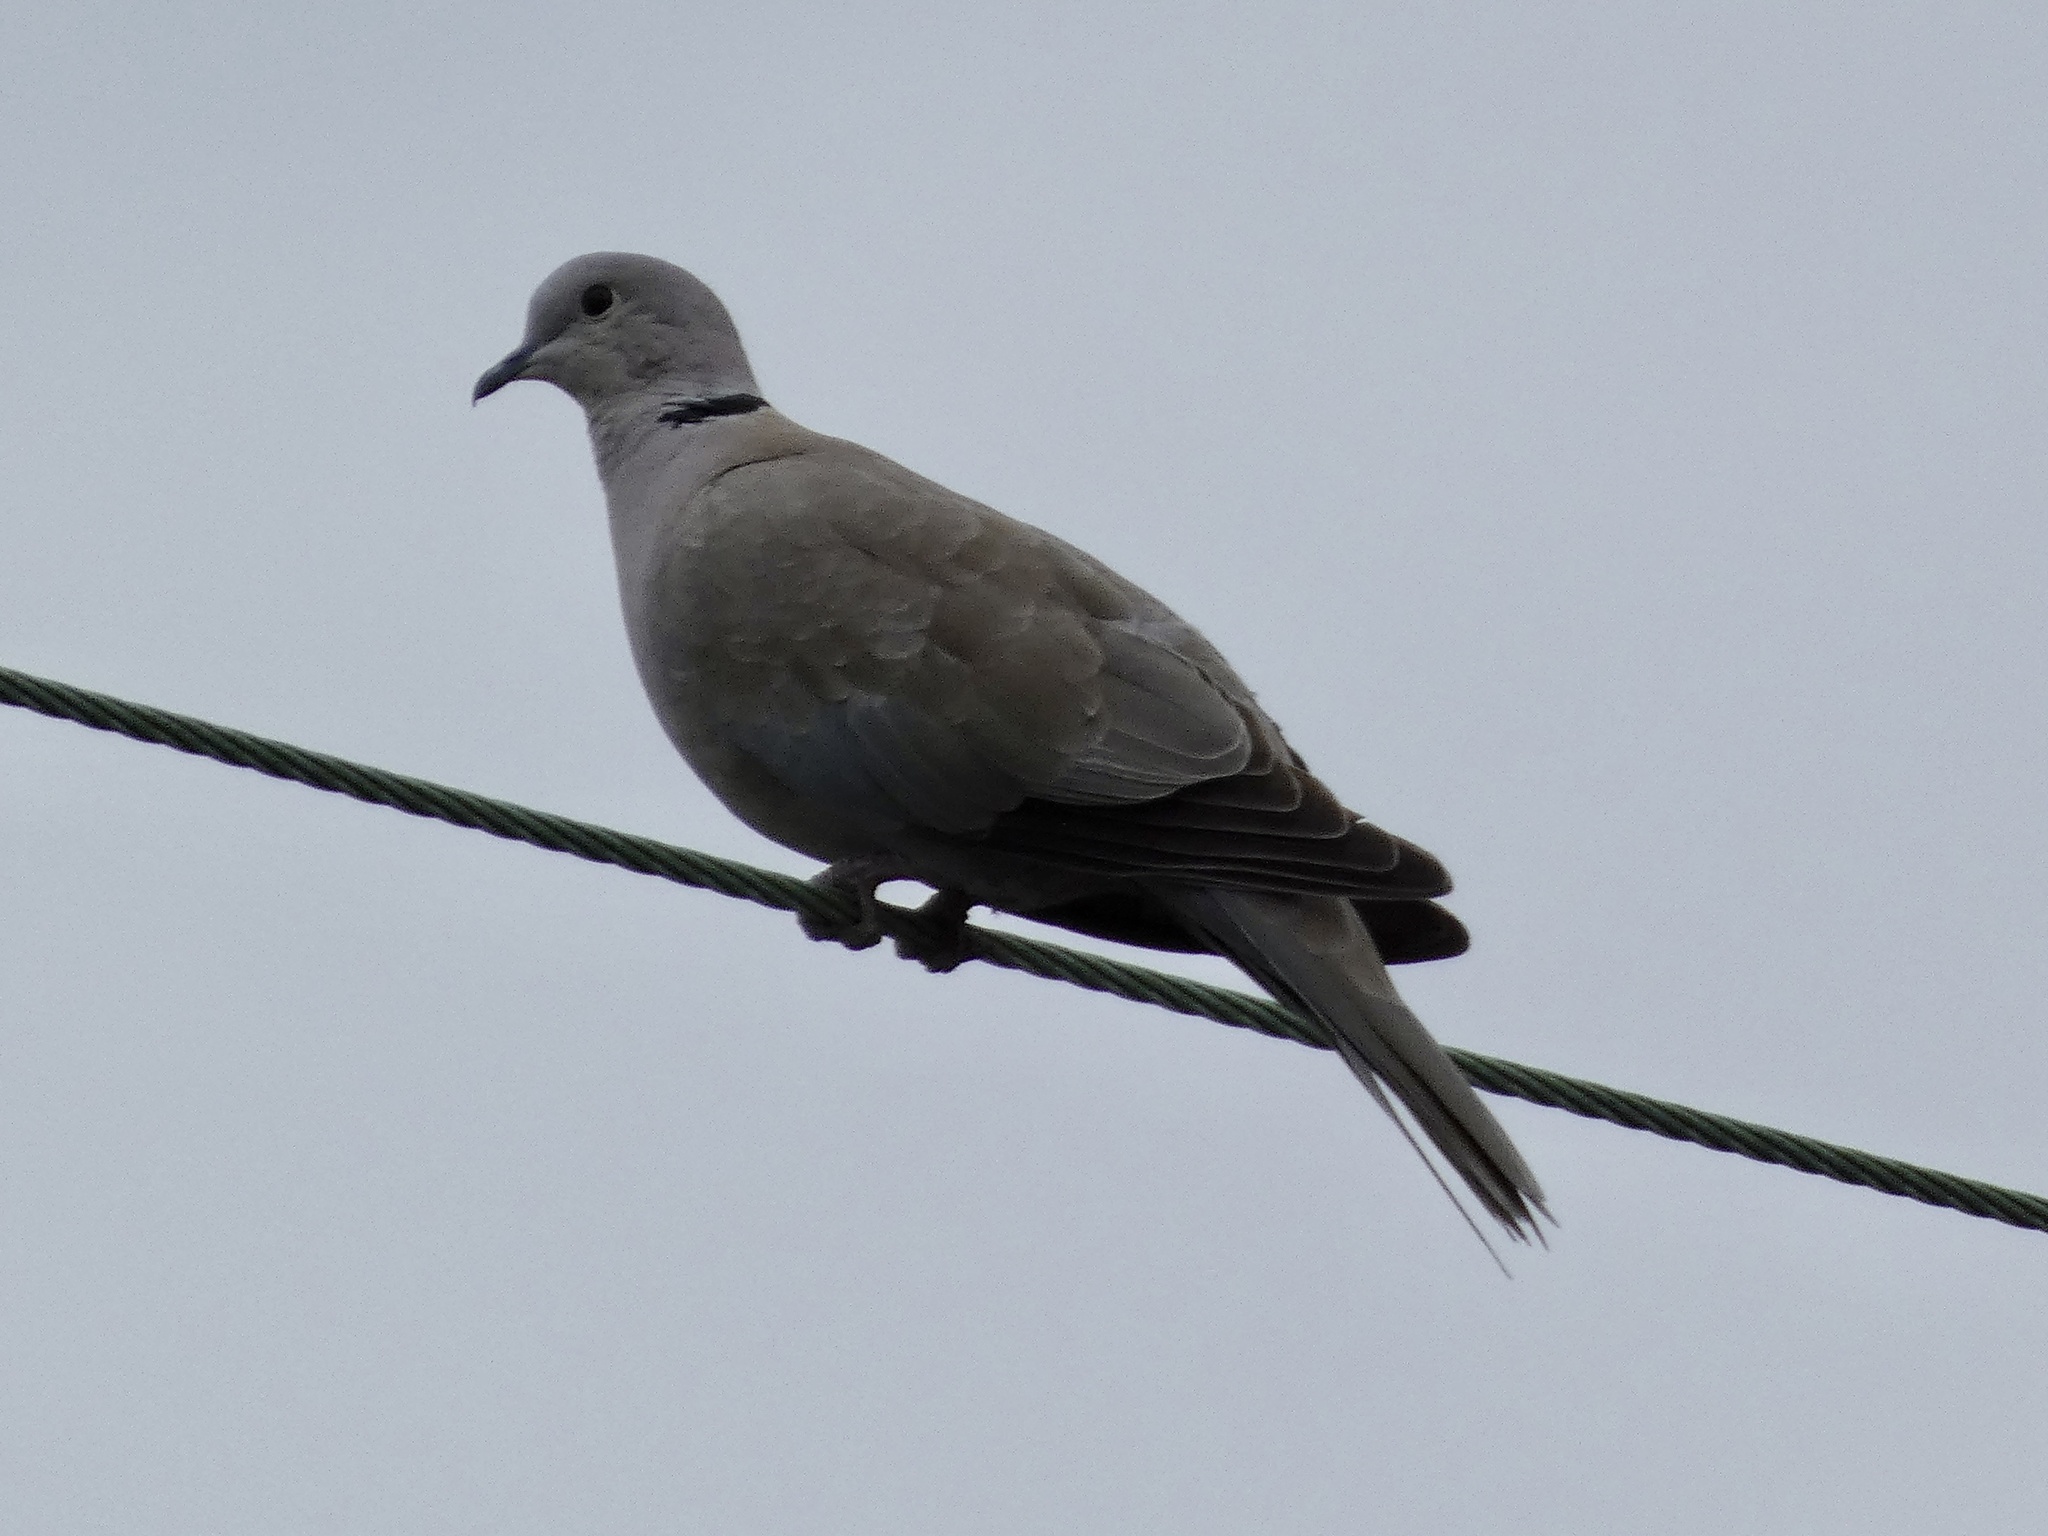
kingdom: Animalia
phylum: Chordata
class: Aves
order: Columbiformes
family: Columbidae
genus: Streptopelia
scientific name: Streptopelia decaocto
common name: Eurasian collared dove
